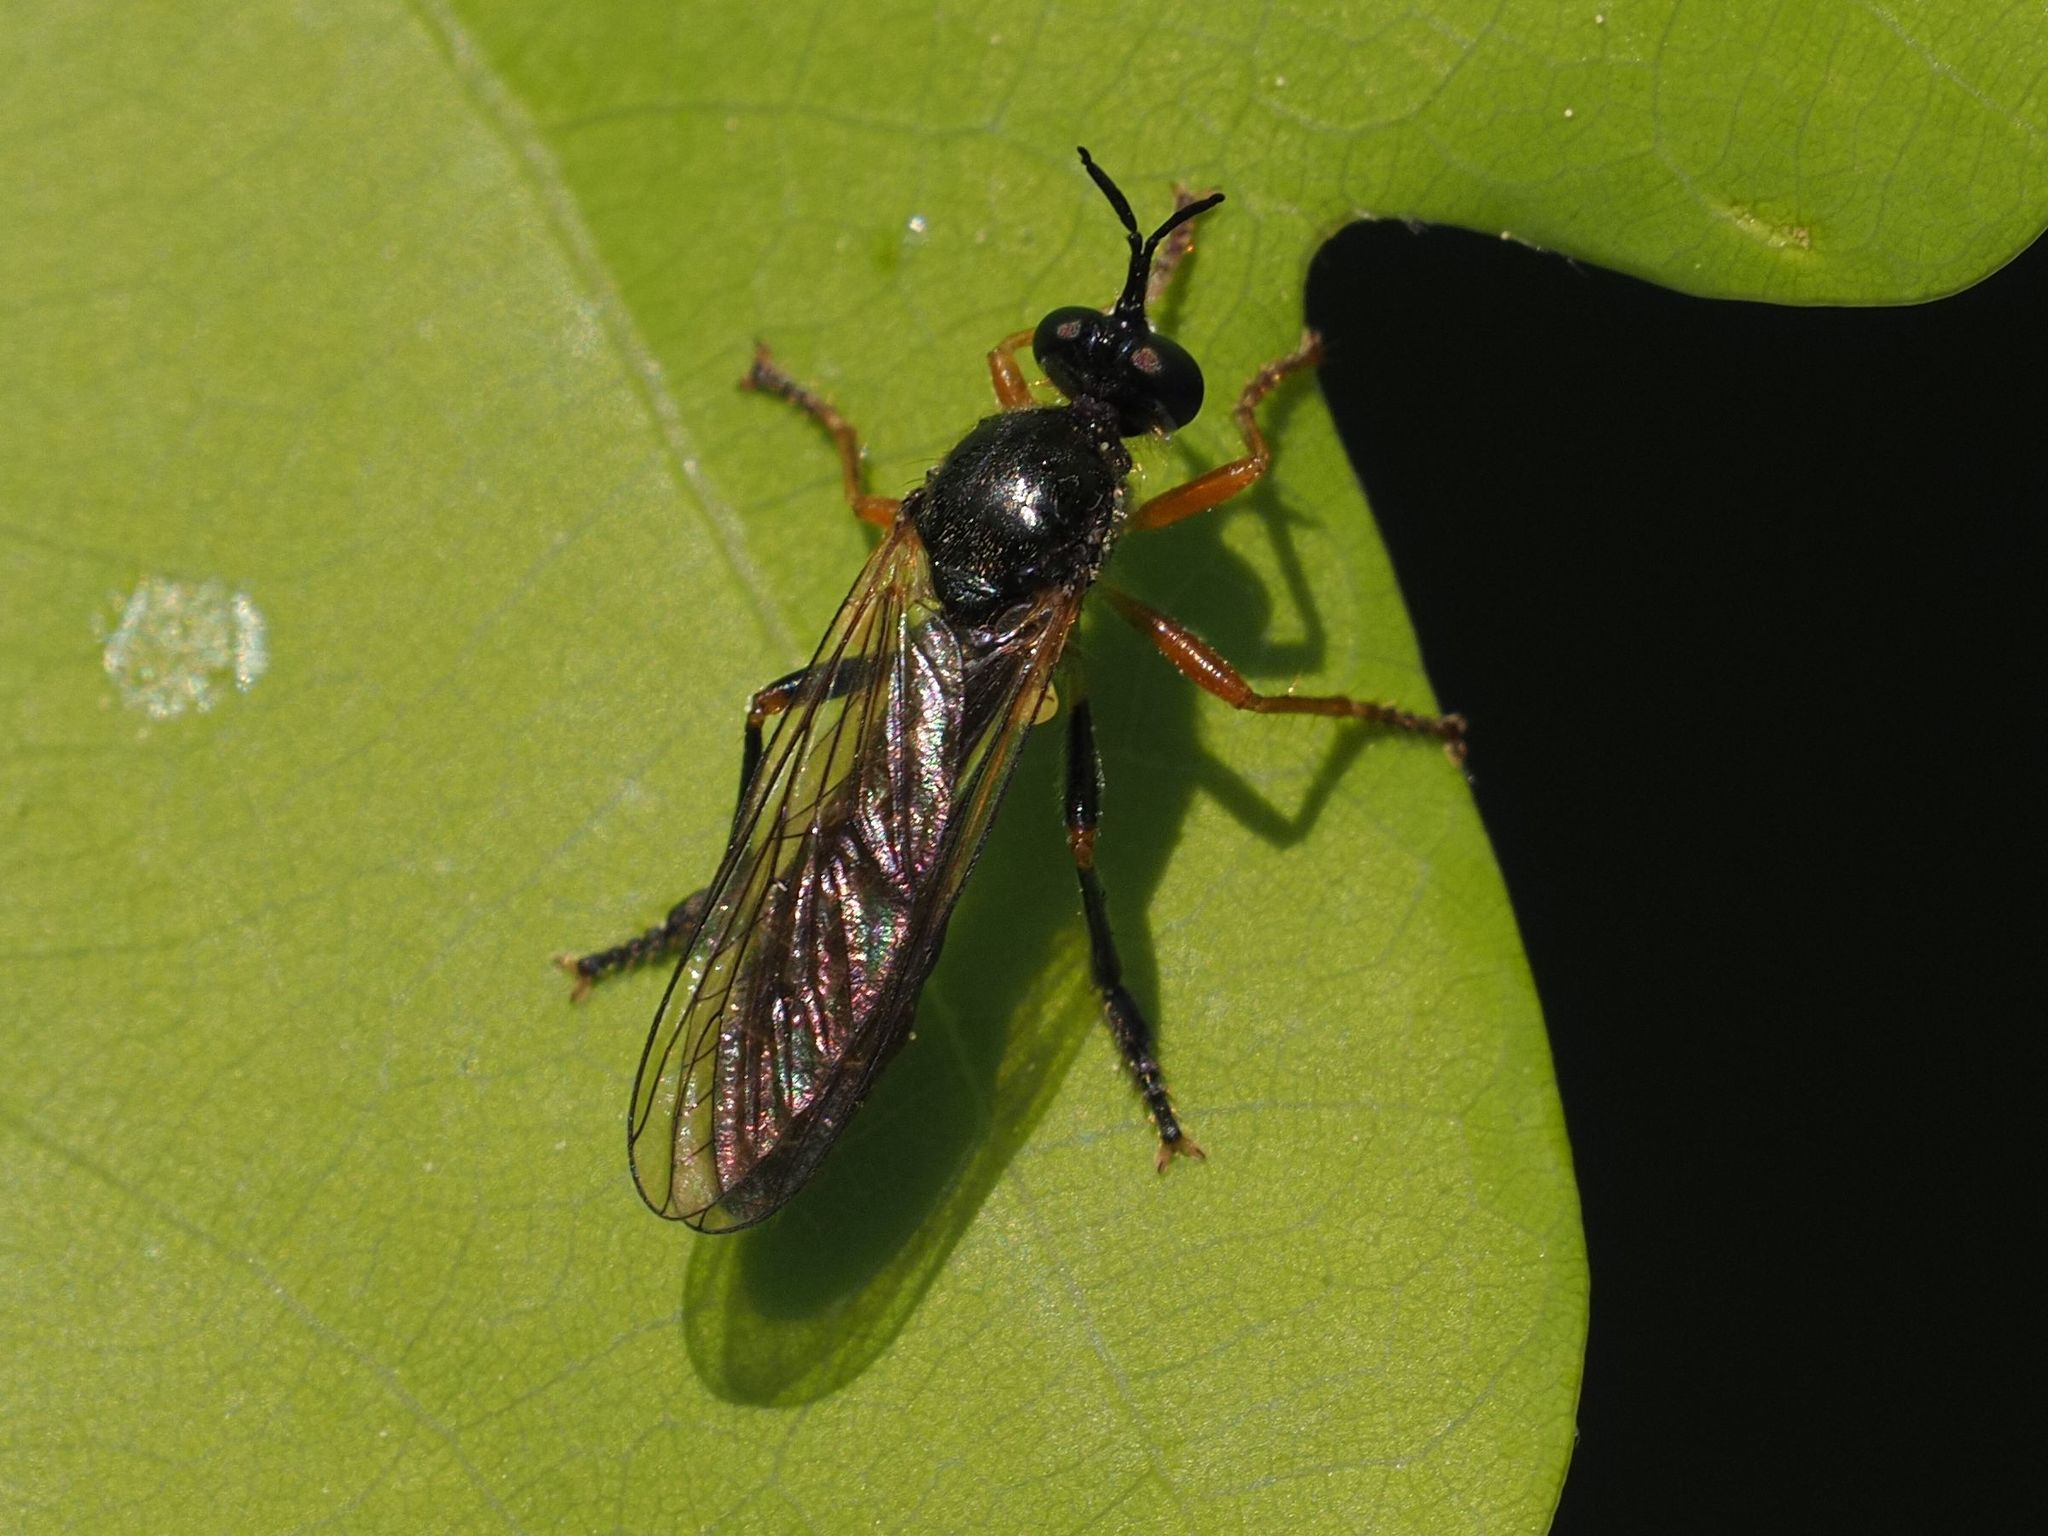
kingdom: Animalia
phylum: Arthropoda
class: Insecta
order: Diptera
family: Asilidae
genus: Dioctria
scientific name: Dioctria rufipes
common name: Common red-legged robberfly
